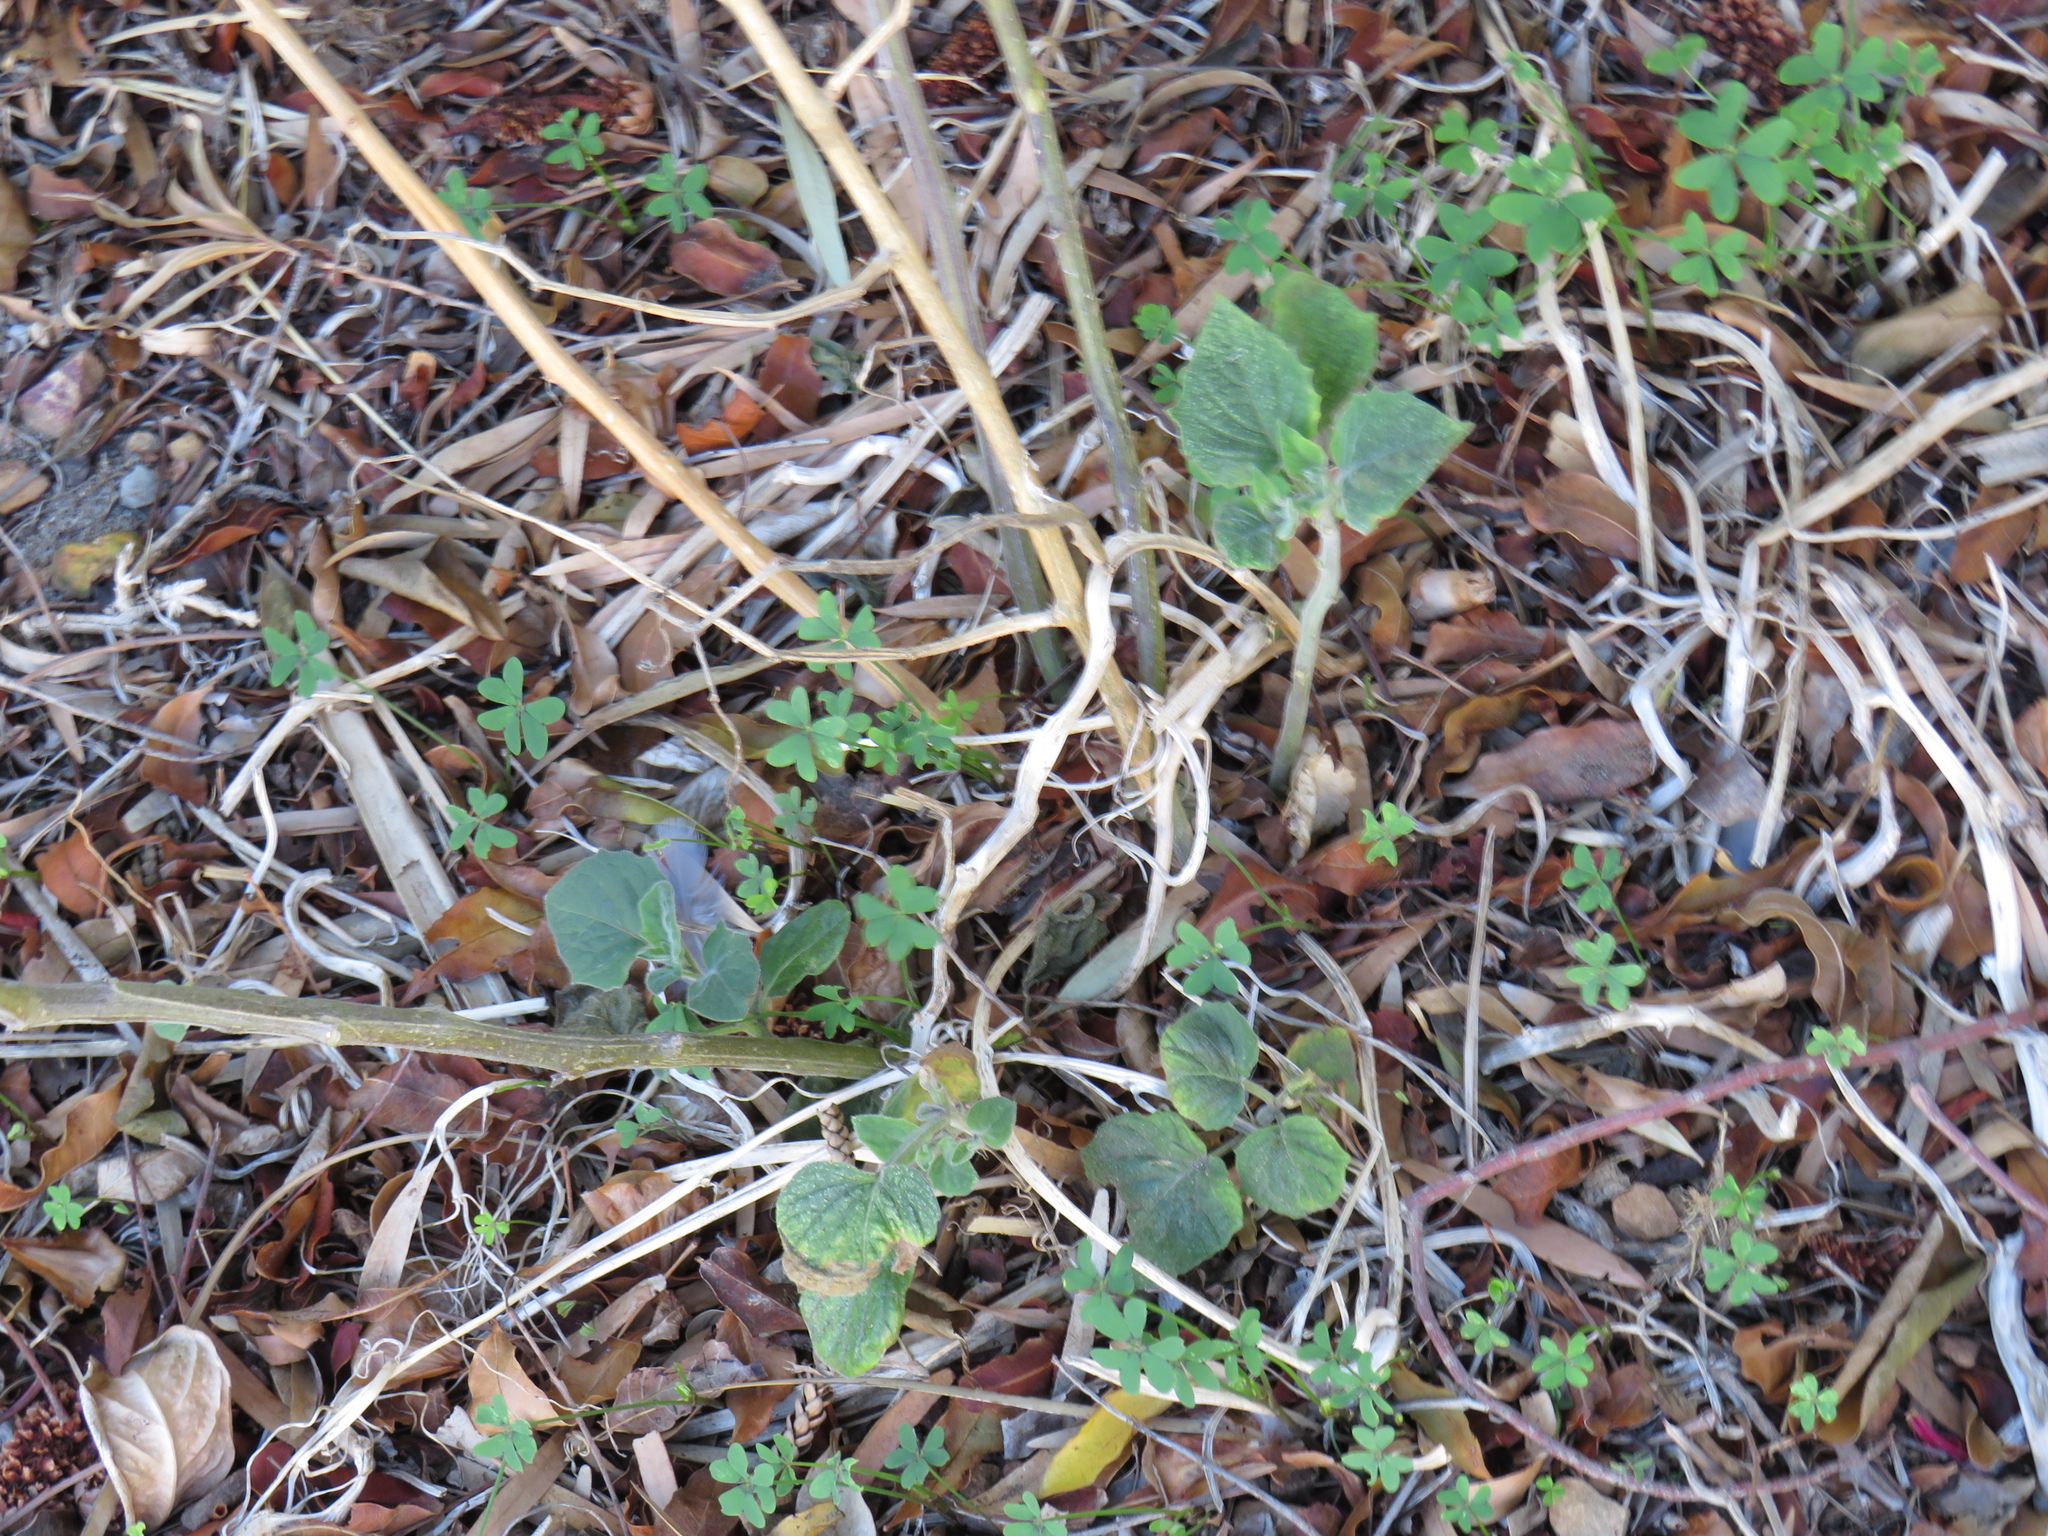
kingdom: Plantae
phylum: Tracheophyta
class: Magnoliopsida
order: Solanales
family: Solanaceae
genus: Physalis
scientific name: Physalis peruviana
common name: Cape-gooseberry
